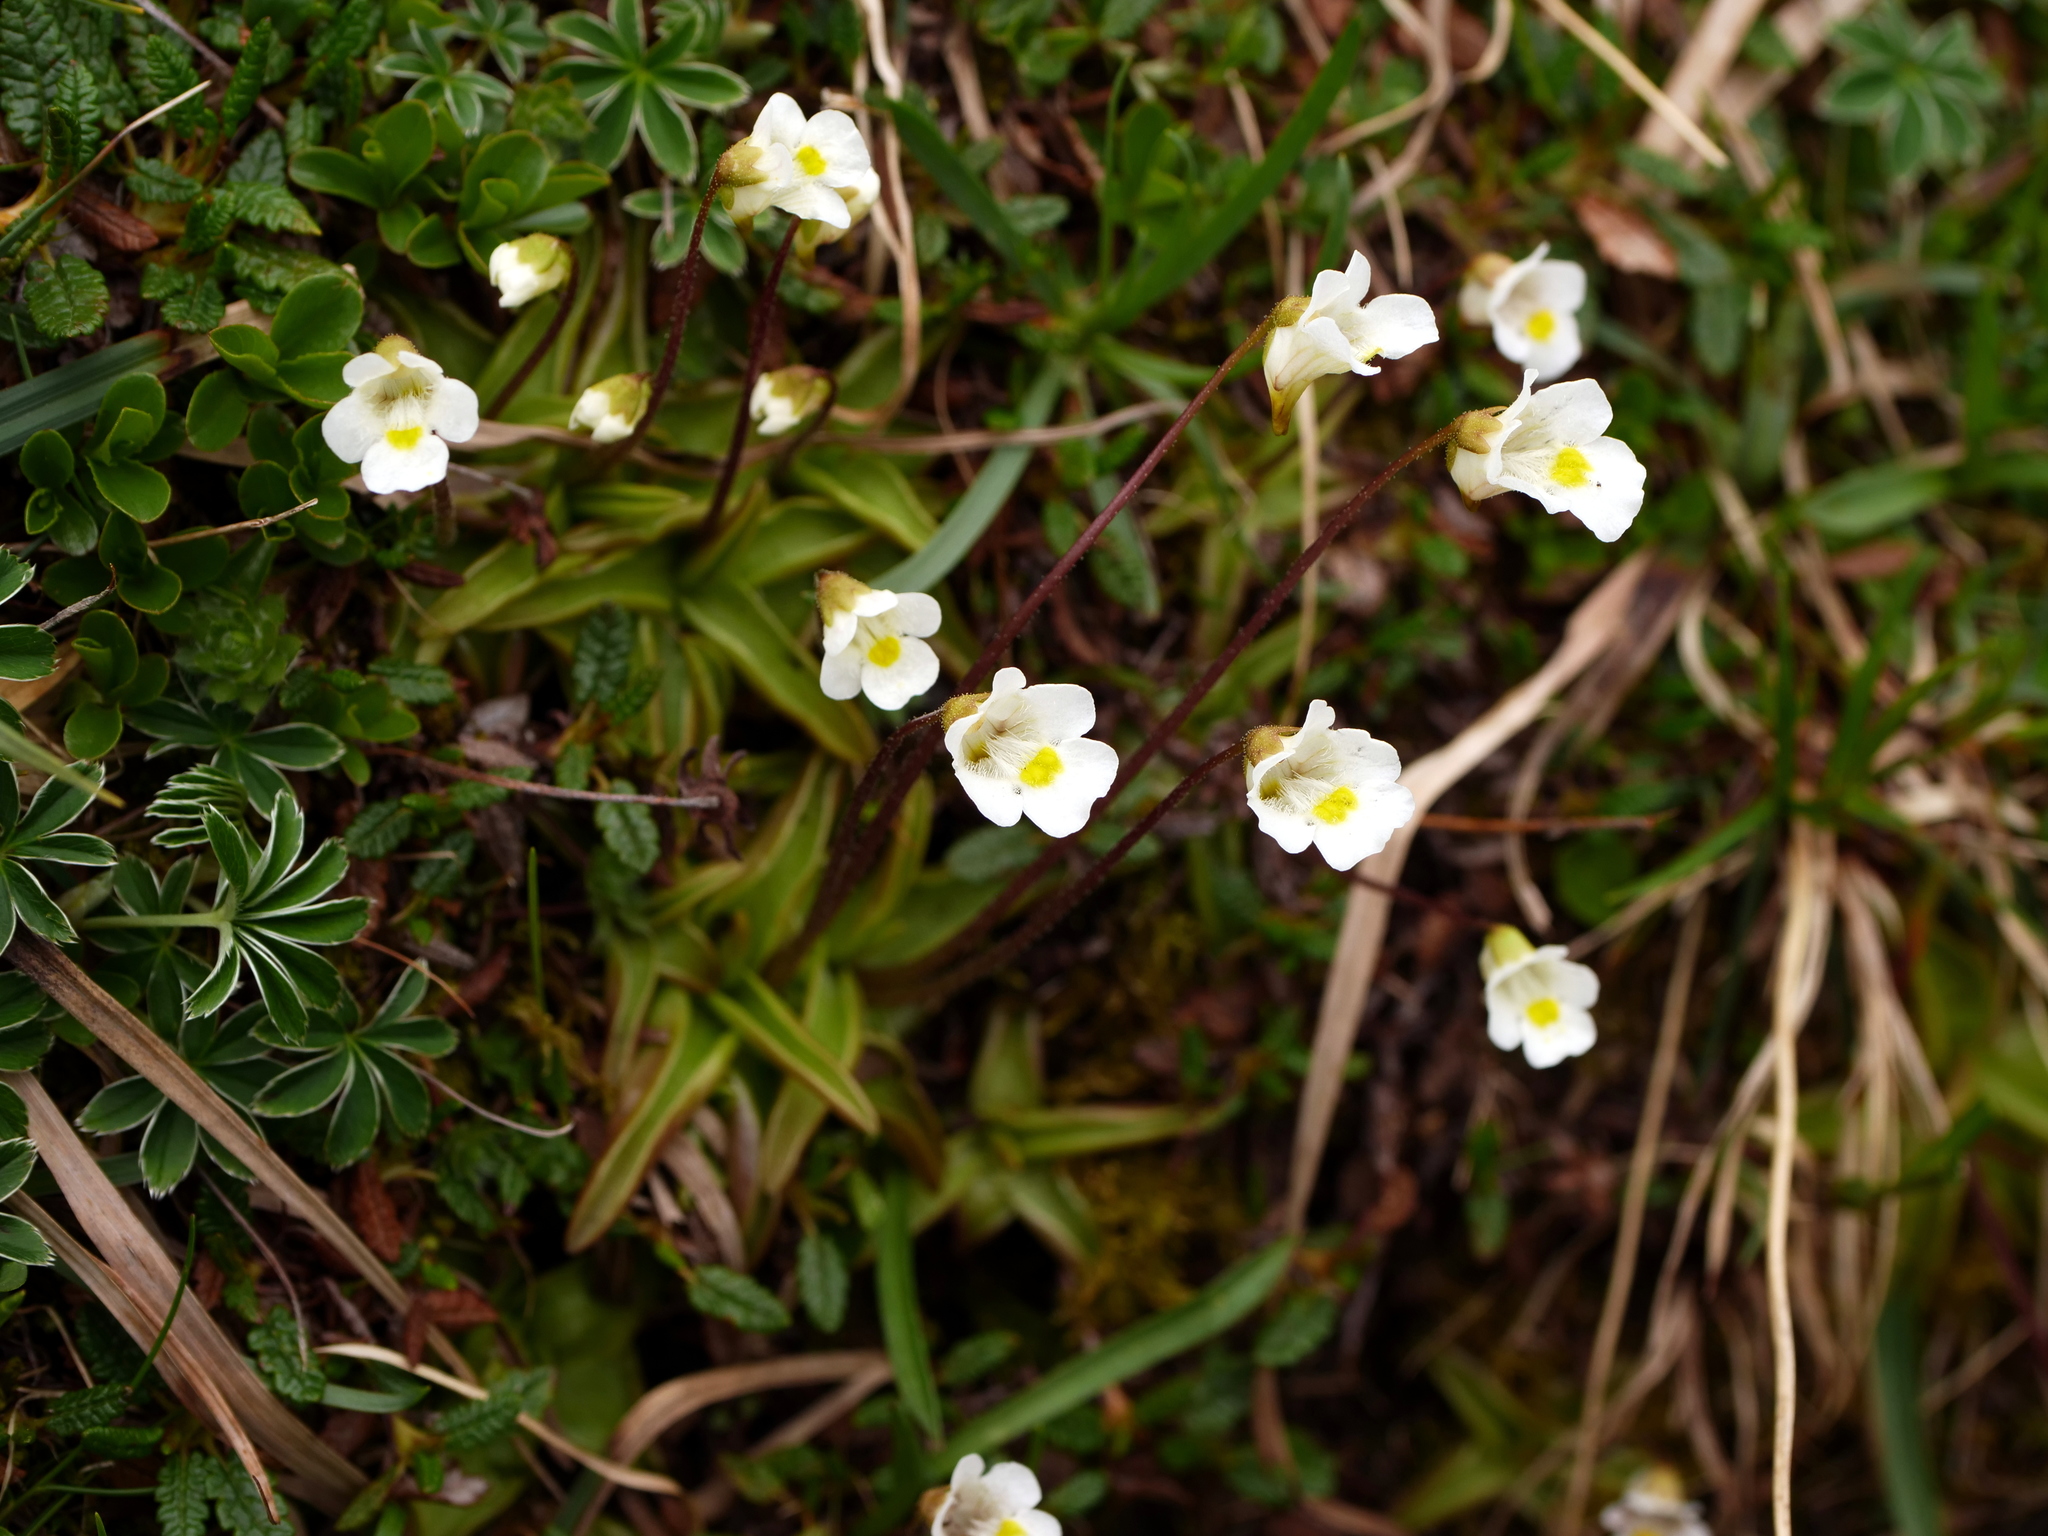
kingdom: Plantae
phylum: Tracheophyta
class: Magnoliopsida
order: Lamiales
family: Lentibulariaceae
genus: Pinguicula
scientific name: Pinguicula alpina
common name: Alpine butterwort
